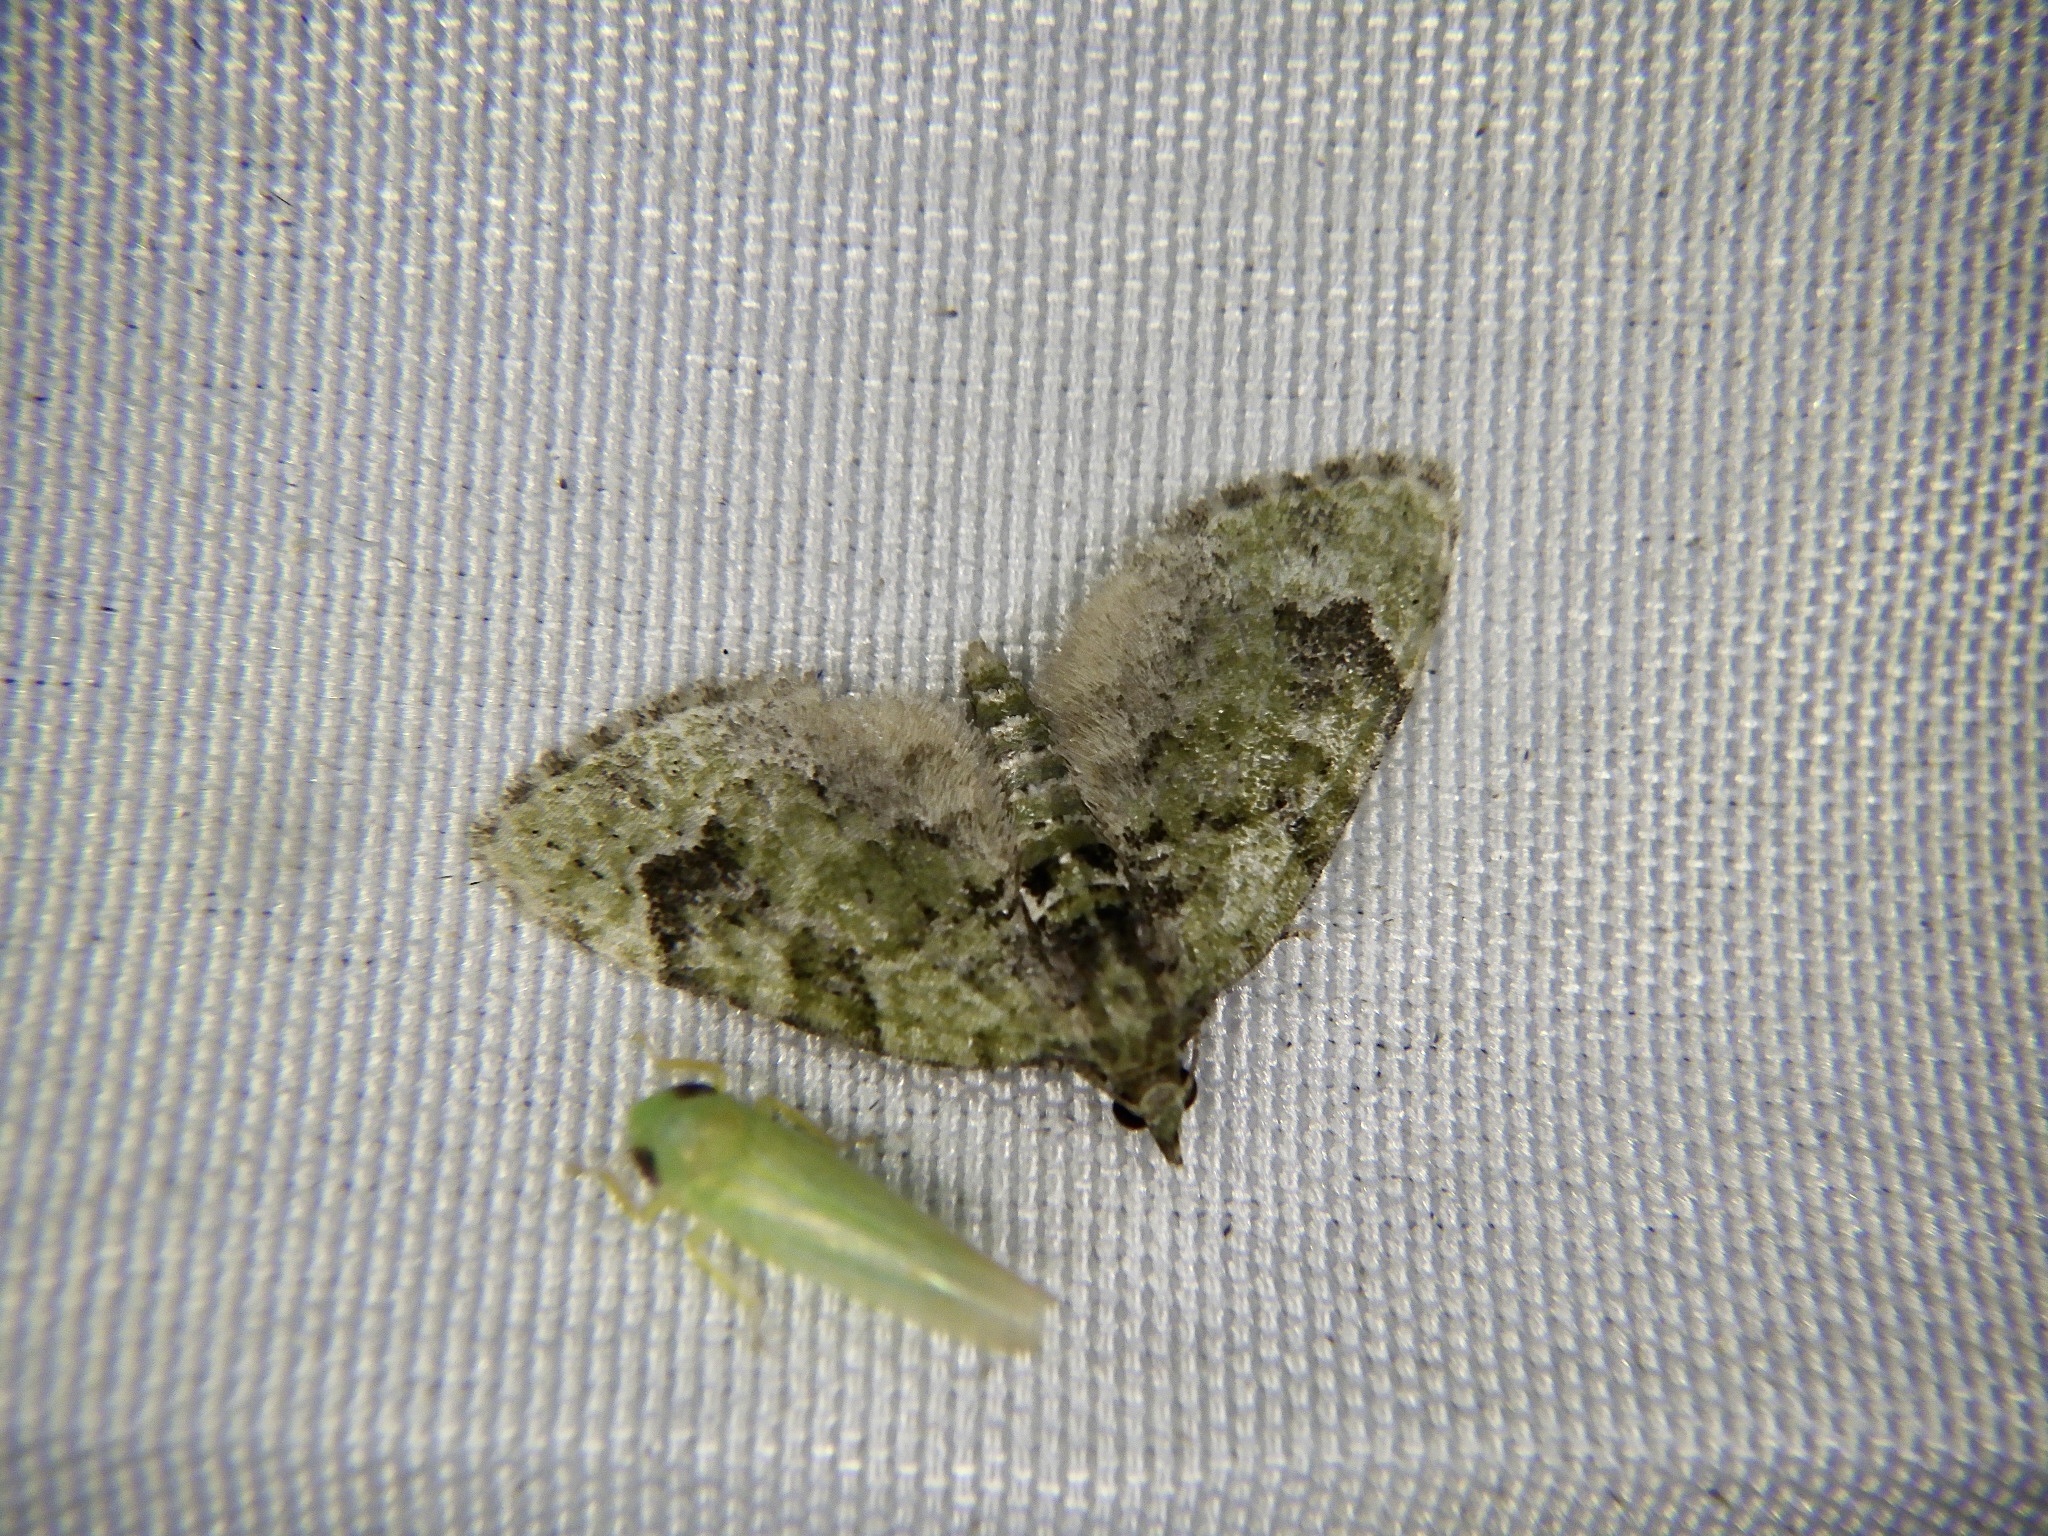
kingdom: Animalia
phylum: Arthropoda
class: Insecta
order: Lepidoptera
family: Geometridae
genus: Chloroclystis
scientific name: Chloroclystis v-ata
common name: V-pug
